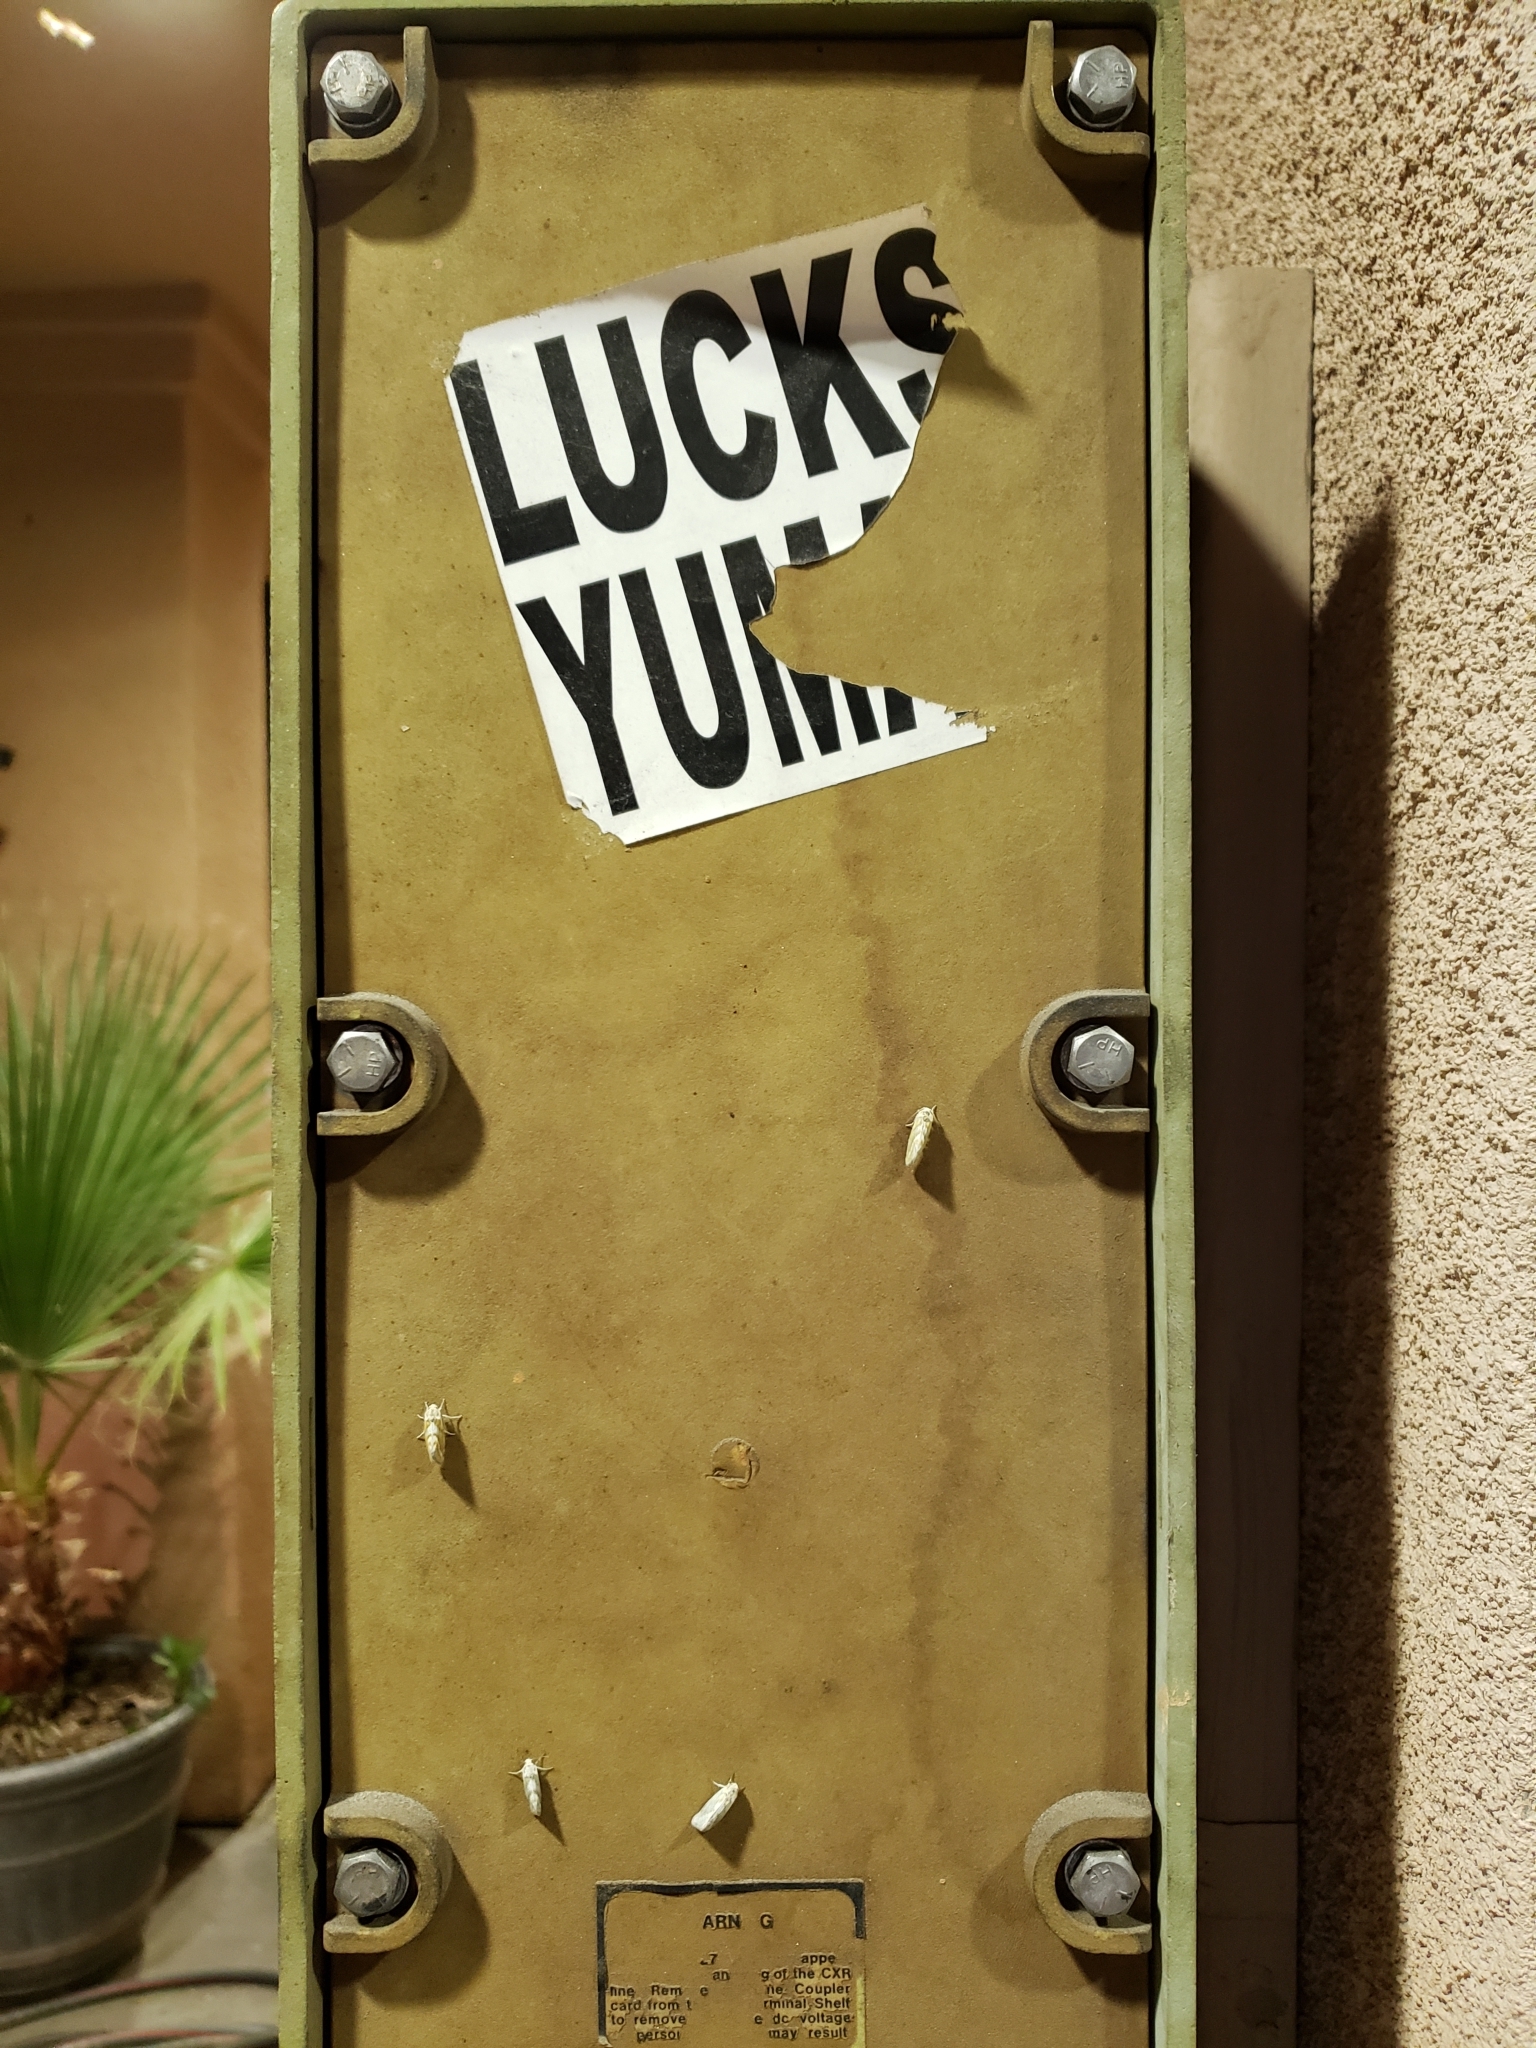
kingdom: Animalia
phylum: Arthropoda
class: Insecta
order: Lepidoptera
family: Noctuidae
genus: Lineostriastiria
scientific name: Lineostriastiria hutsoni
